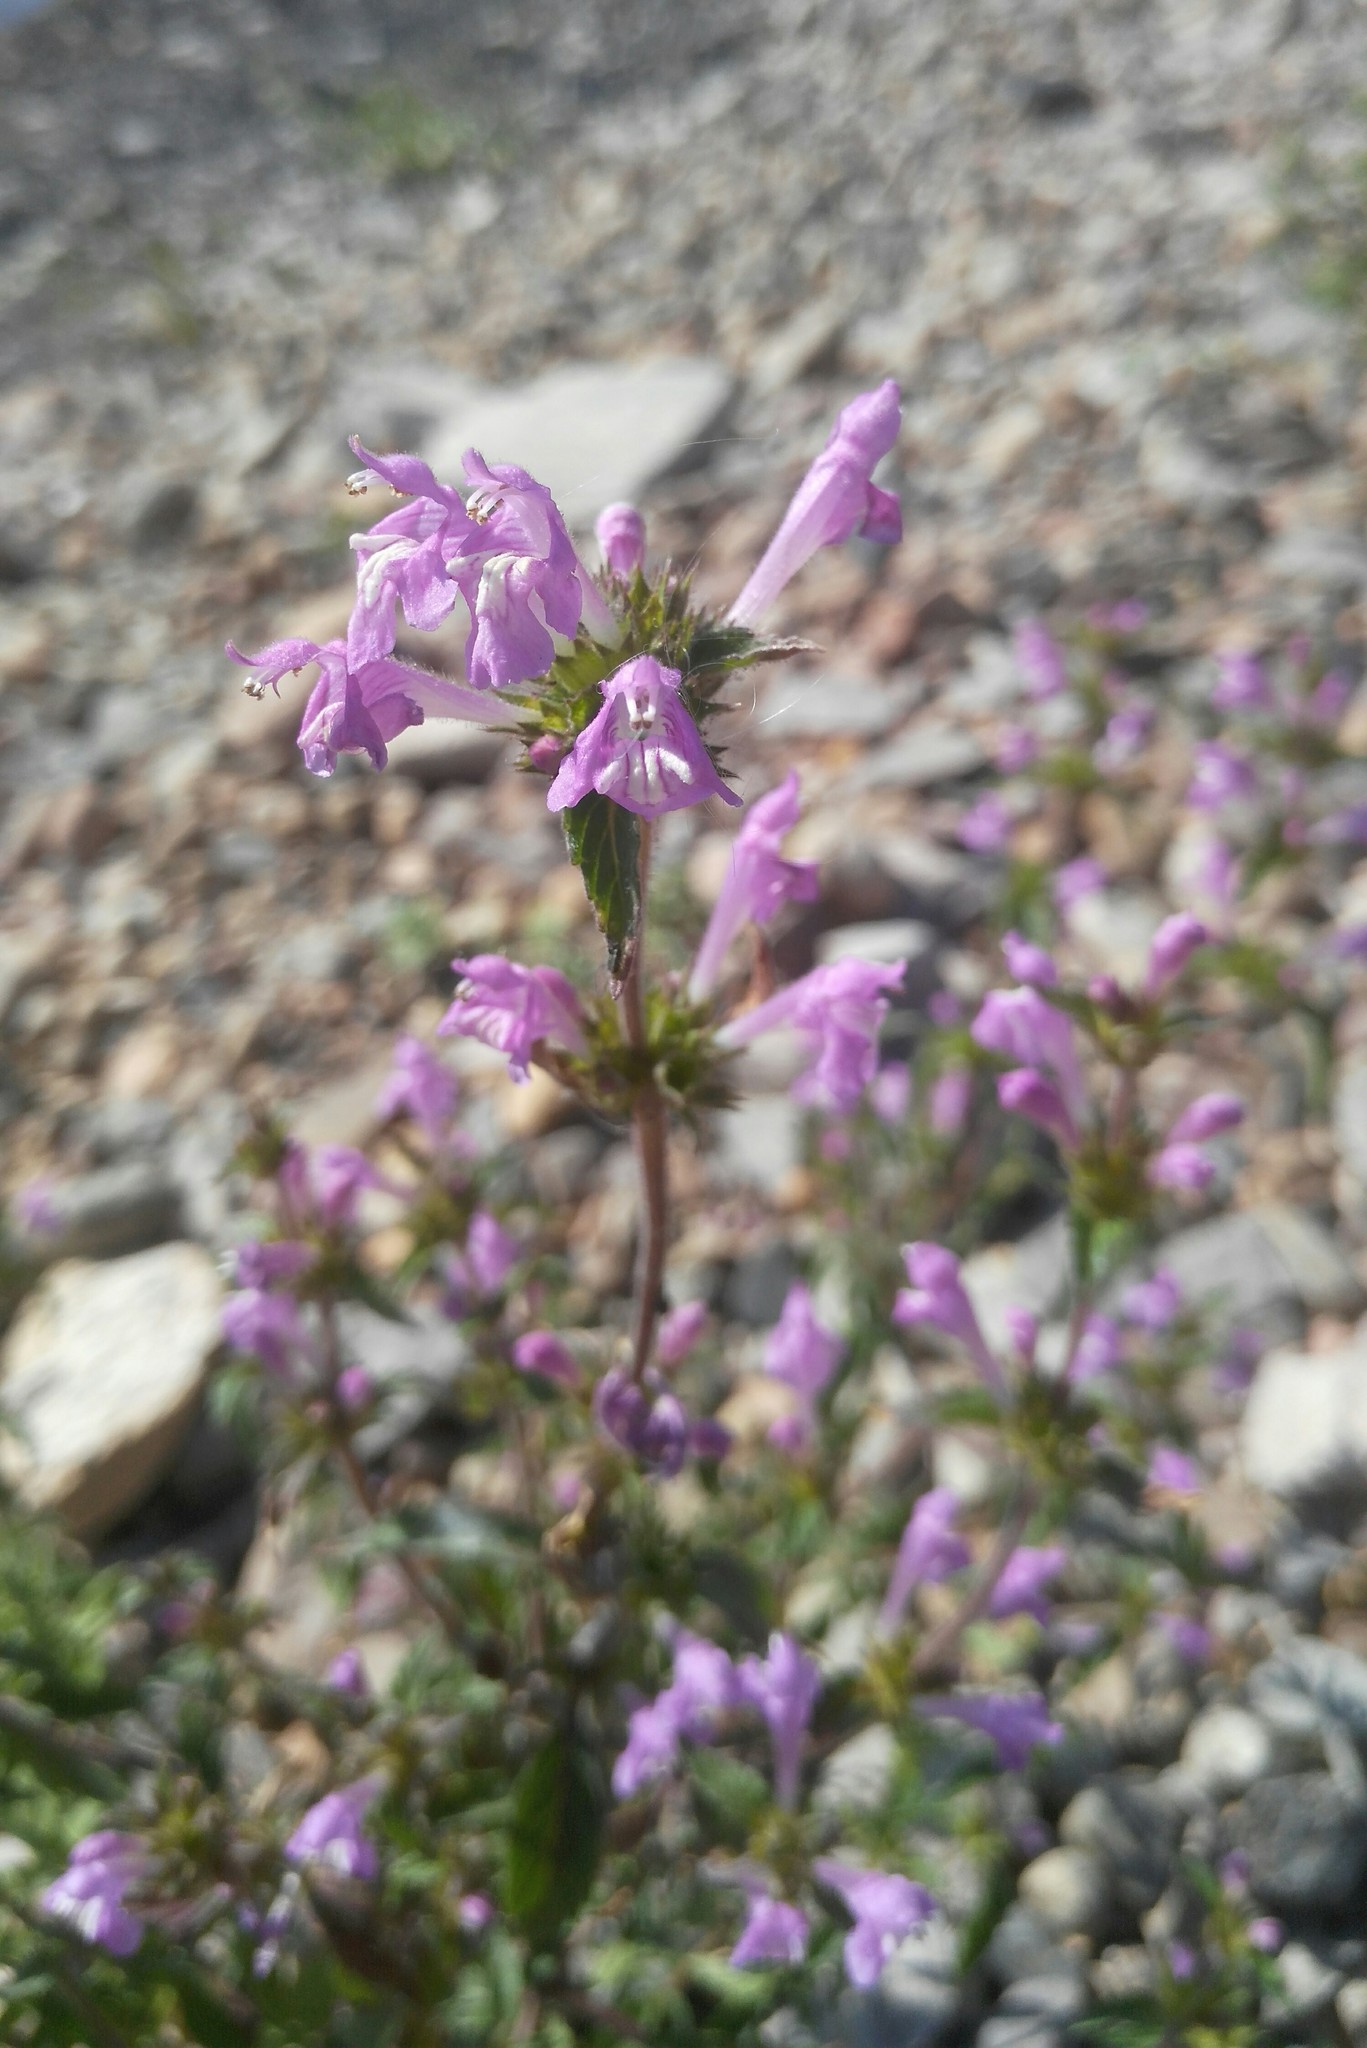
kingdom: Plantae
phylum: Tracheophyta
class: Magnoliopsida
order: Lamiales
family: Lamiaceae
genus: Galeopsis
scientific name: Galeopsis ladanum
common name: Broad-leaved hemp-nettle
